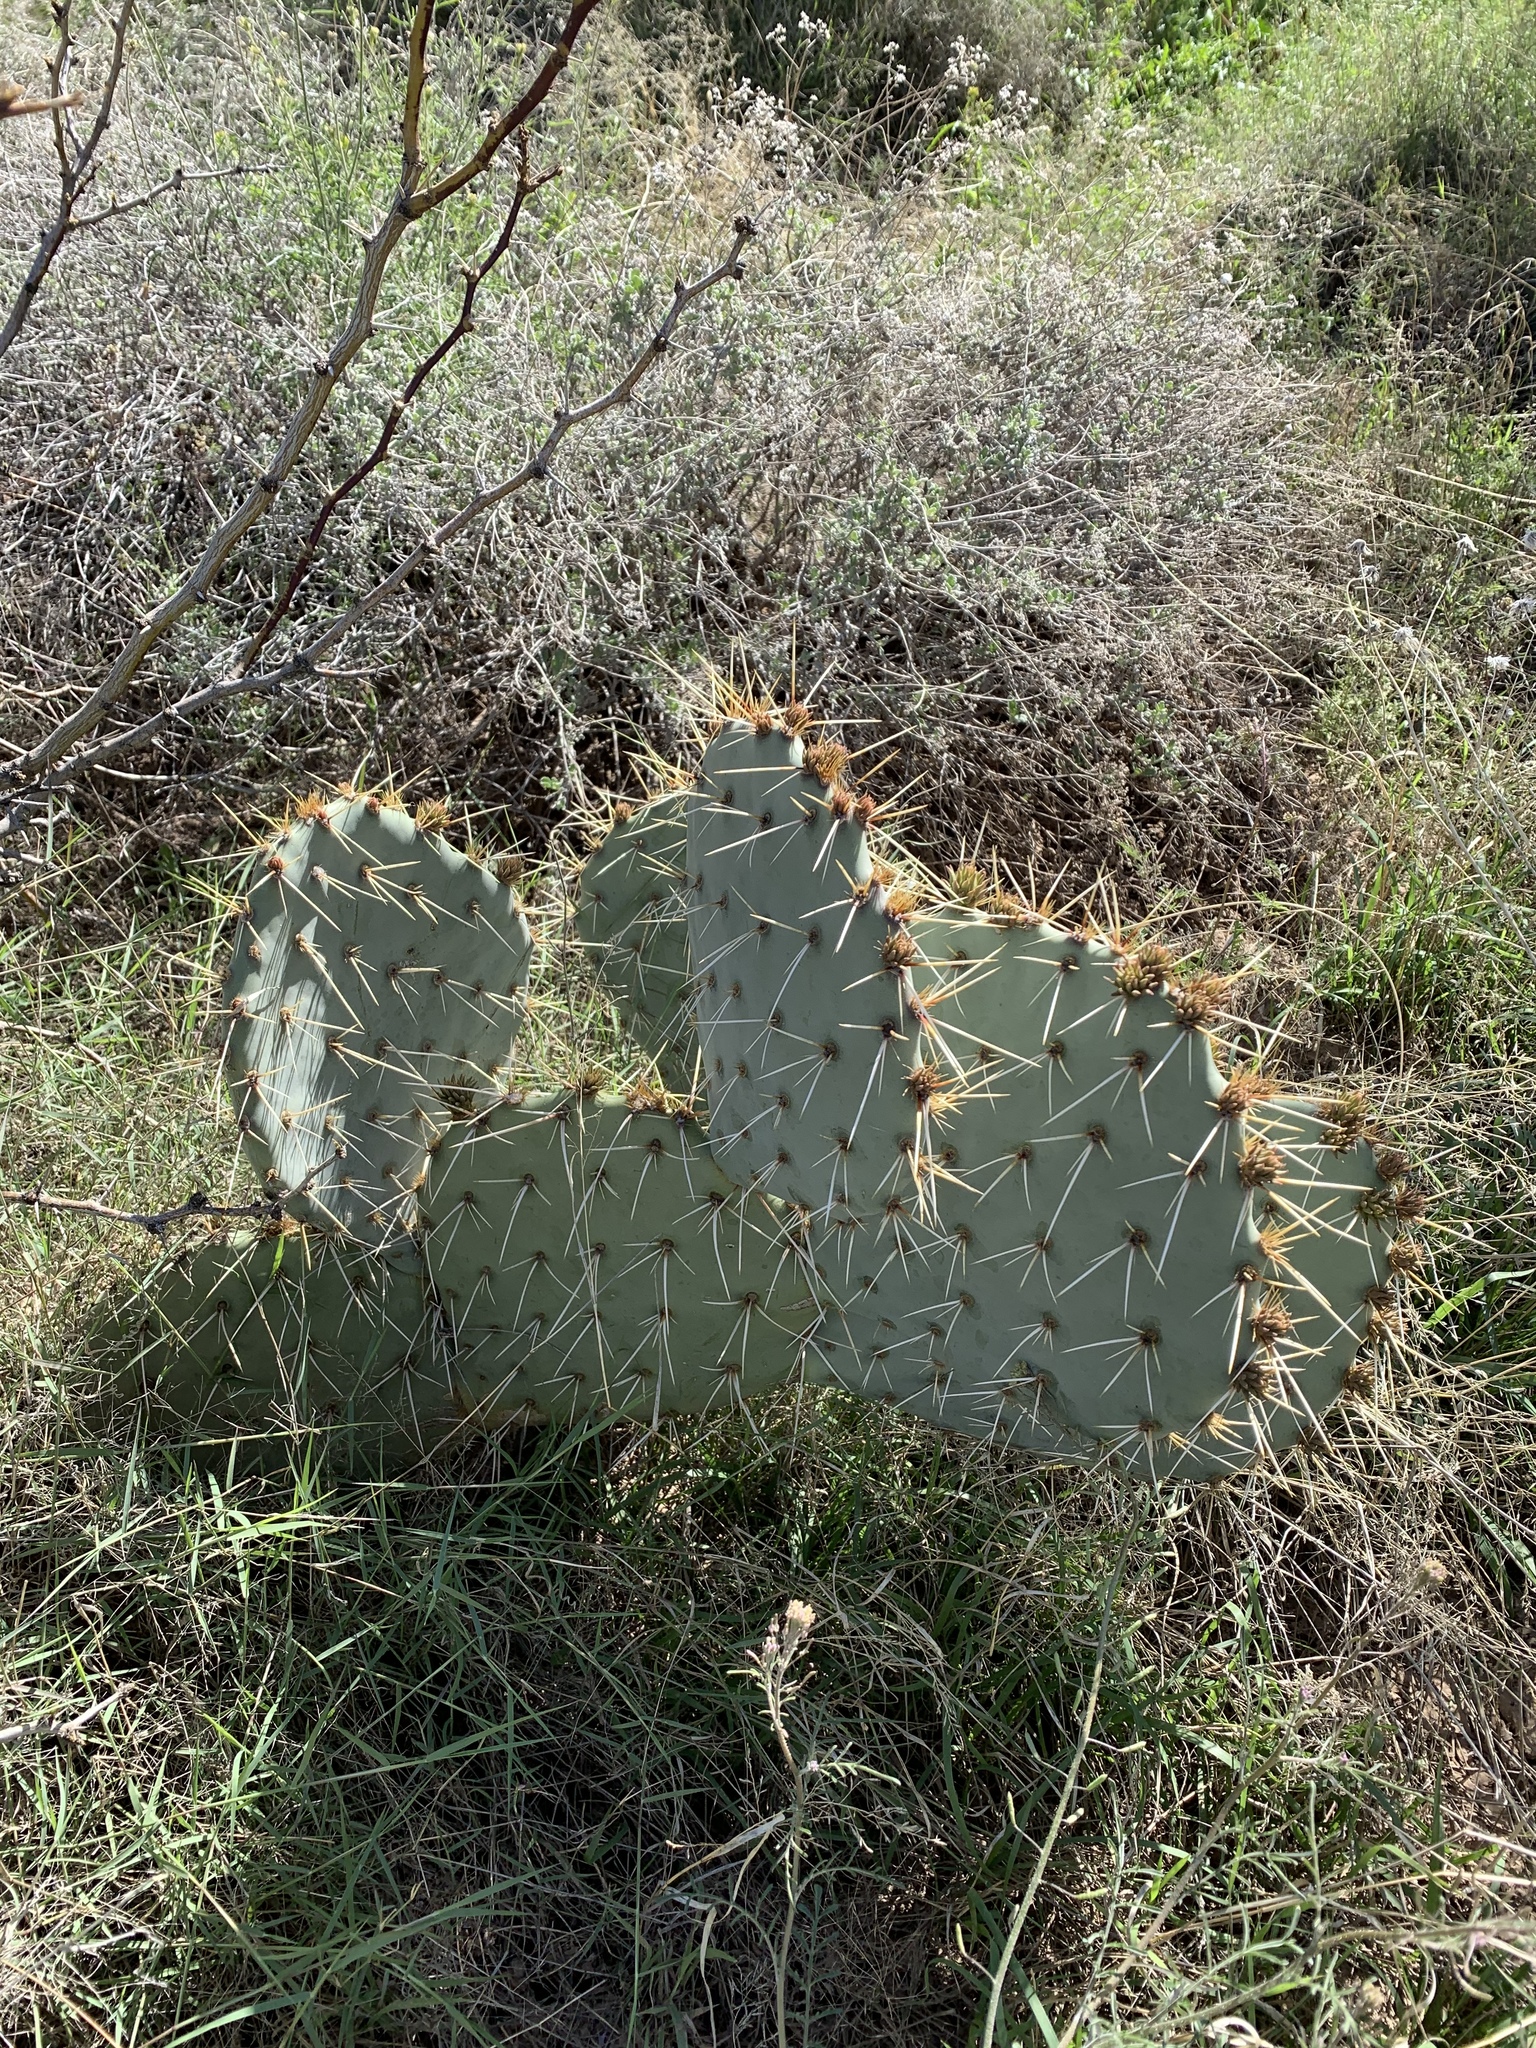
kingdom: Plantae
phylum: Tracheophyta
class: Magnoliopsida
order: Caryophyllales
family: Cactaceae
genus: Opuntia
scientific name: Opuntia engelmannii
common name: Cactus-apple
